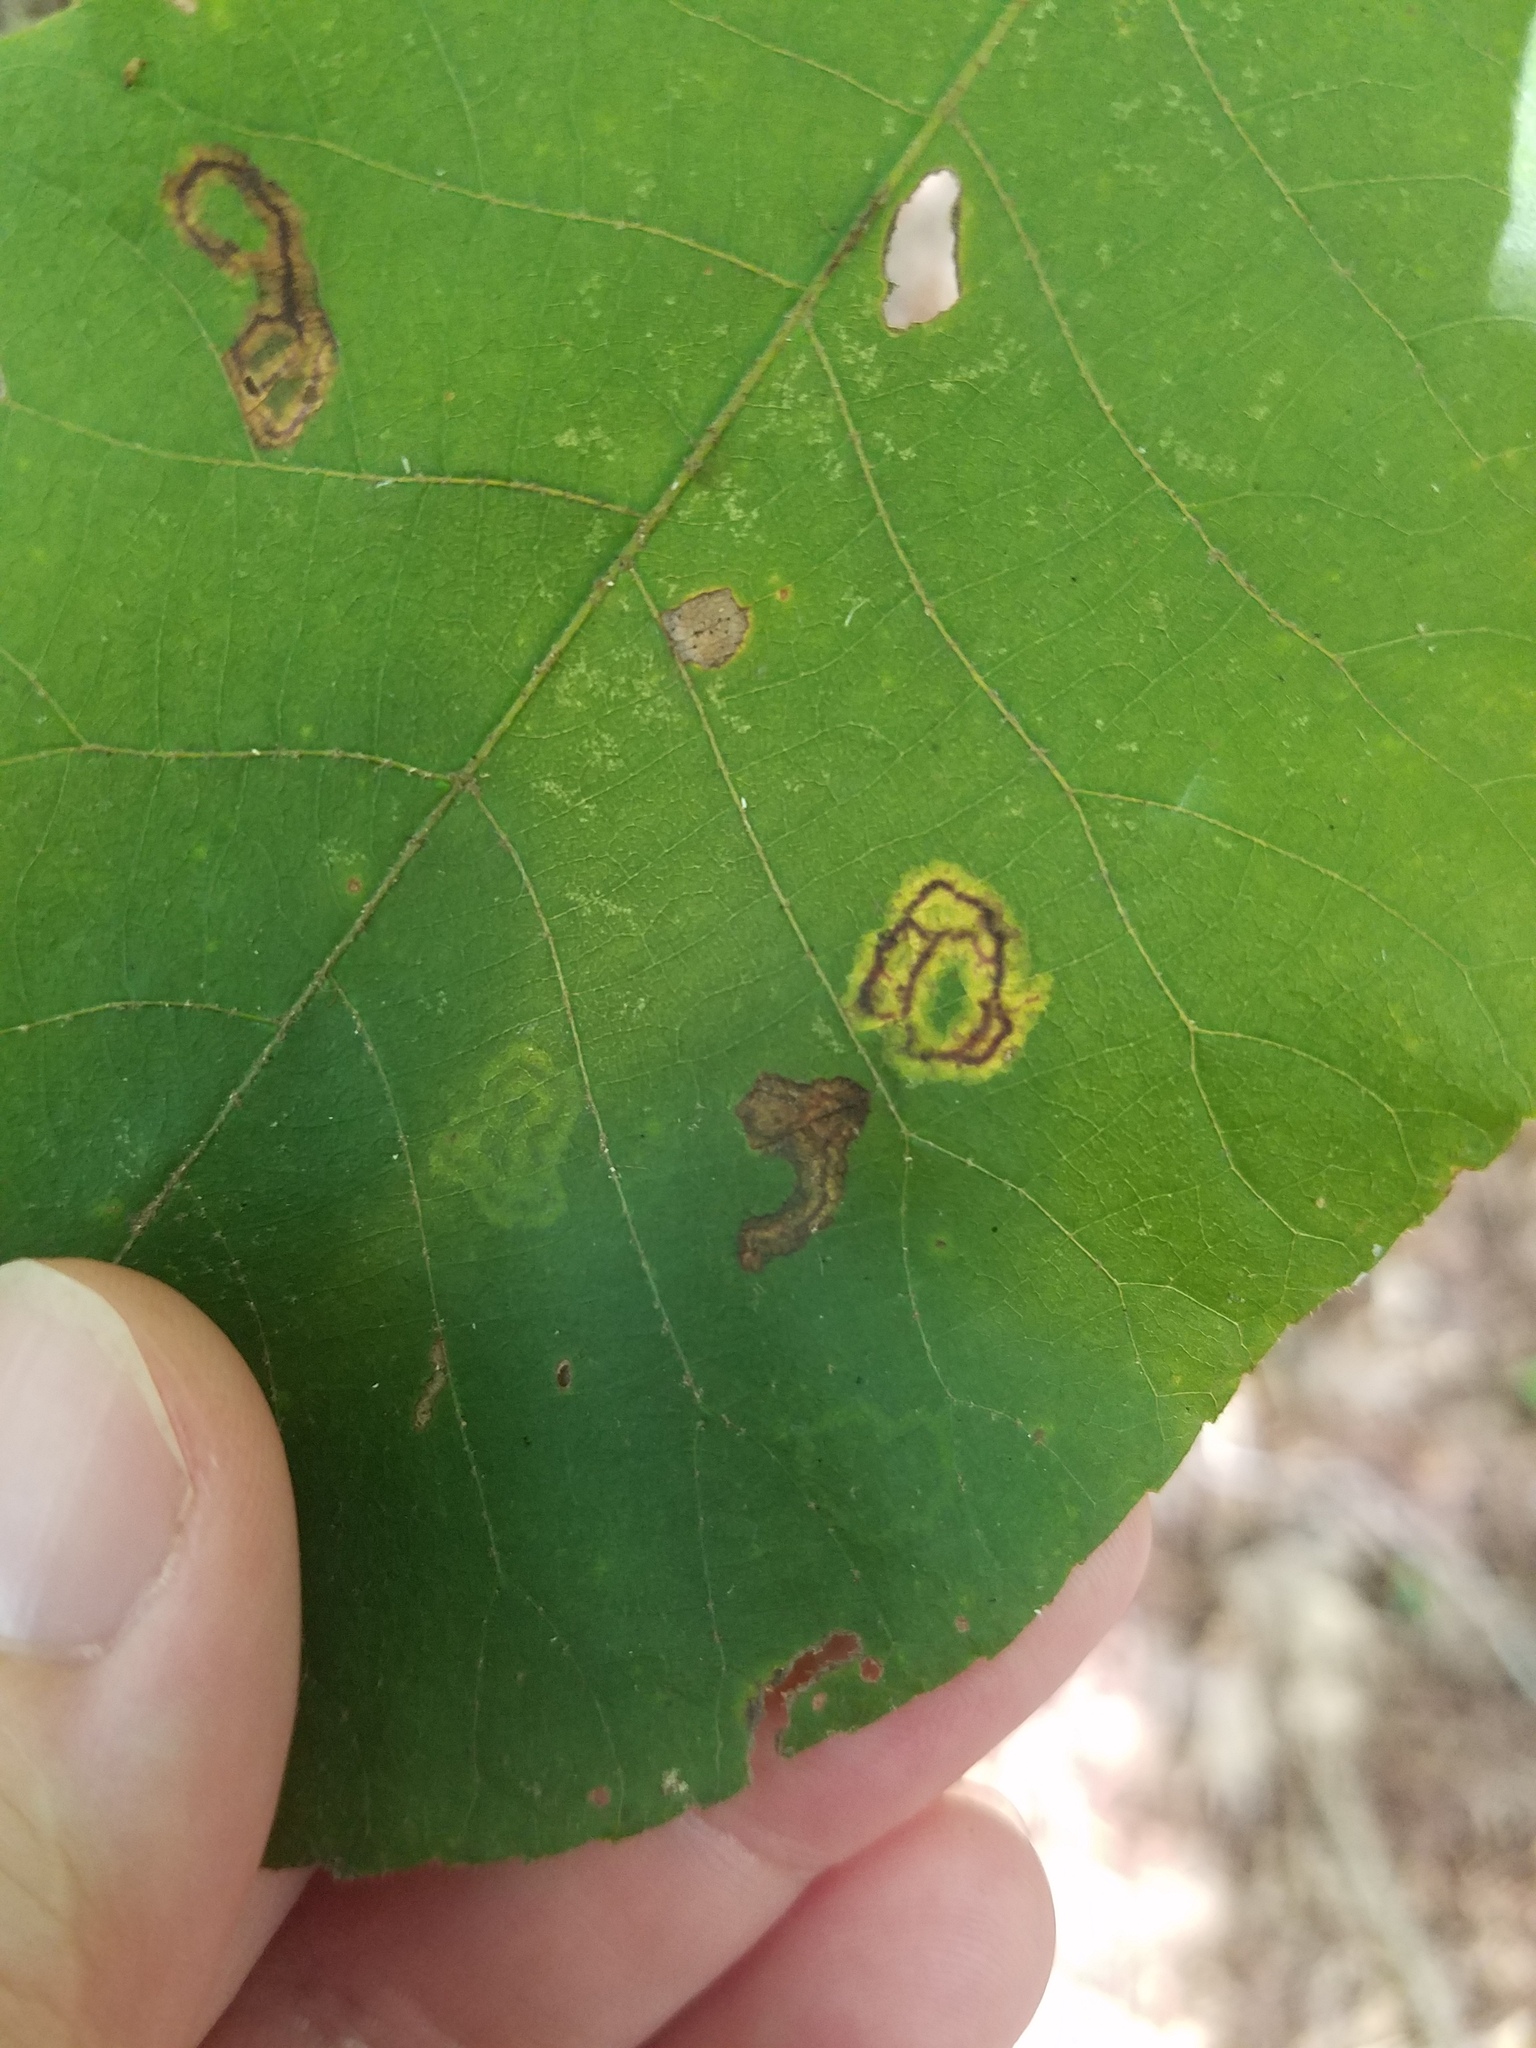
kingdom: Animalia
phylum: Arthropoda
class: Insecta
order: Diptera
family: Cecidomyiidae
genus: Gliaspilota
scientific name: Gliaspilota glutinosa
